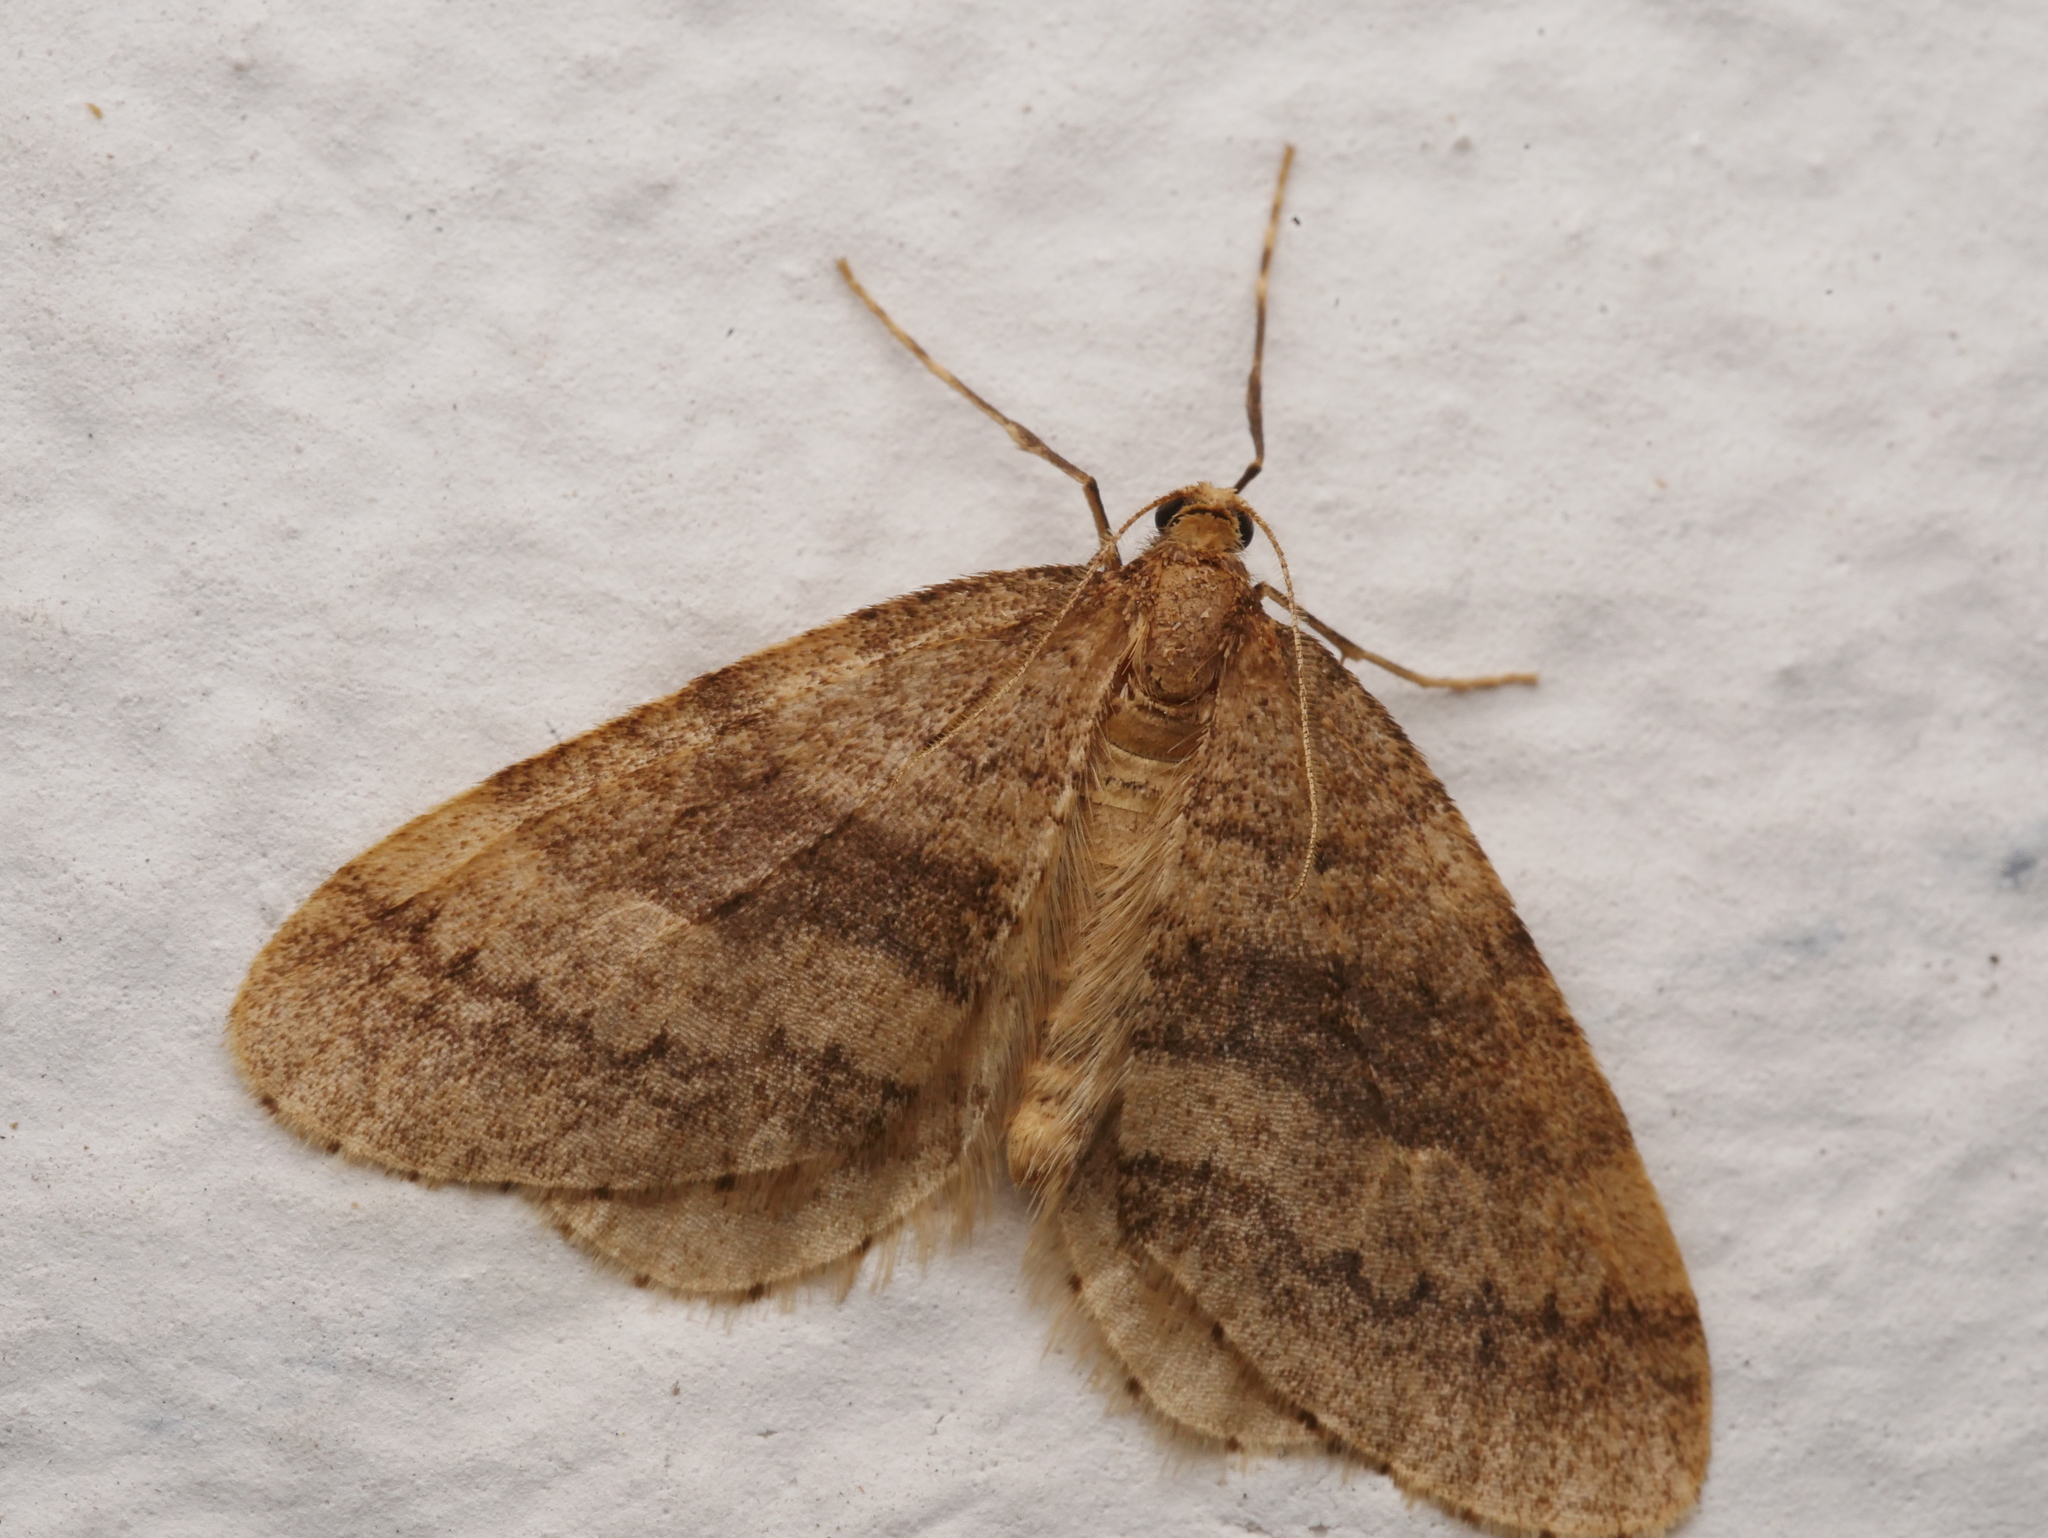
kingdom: Animalia
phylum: Arthropoda
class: Insecta
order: Lepidoptera
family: Geometridae
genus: Operophtera
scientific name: Operophtera brumata
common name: Winter moth
